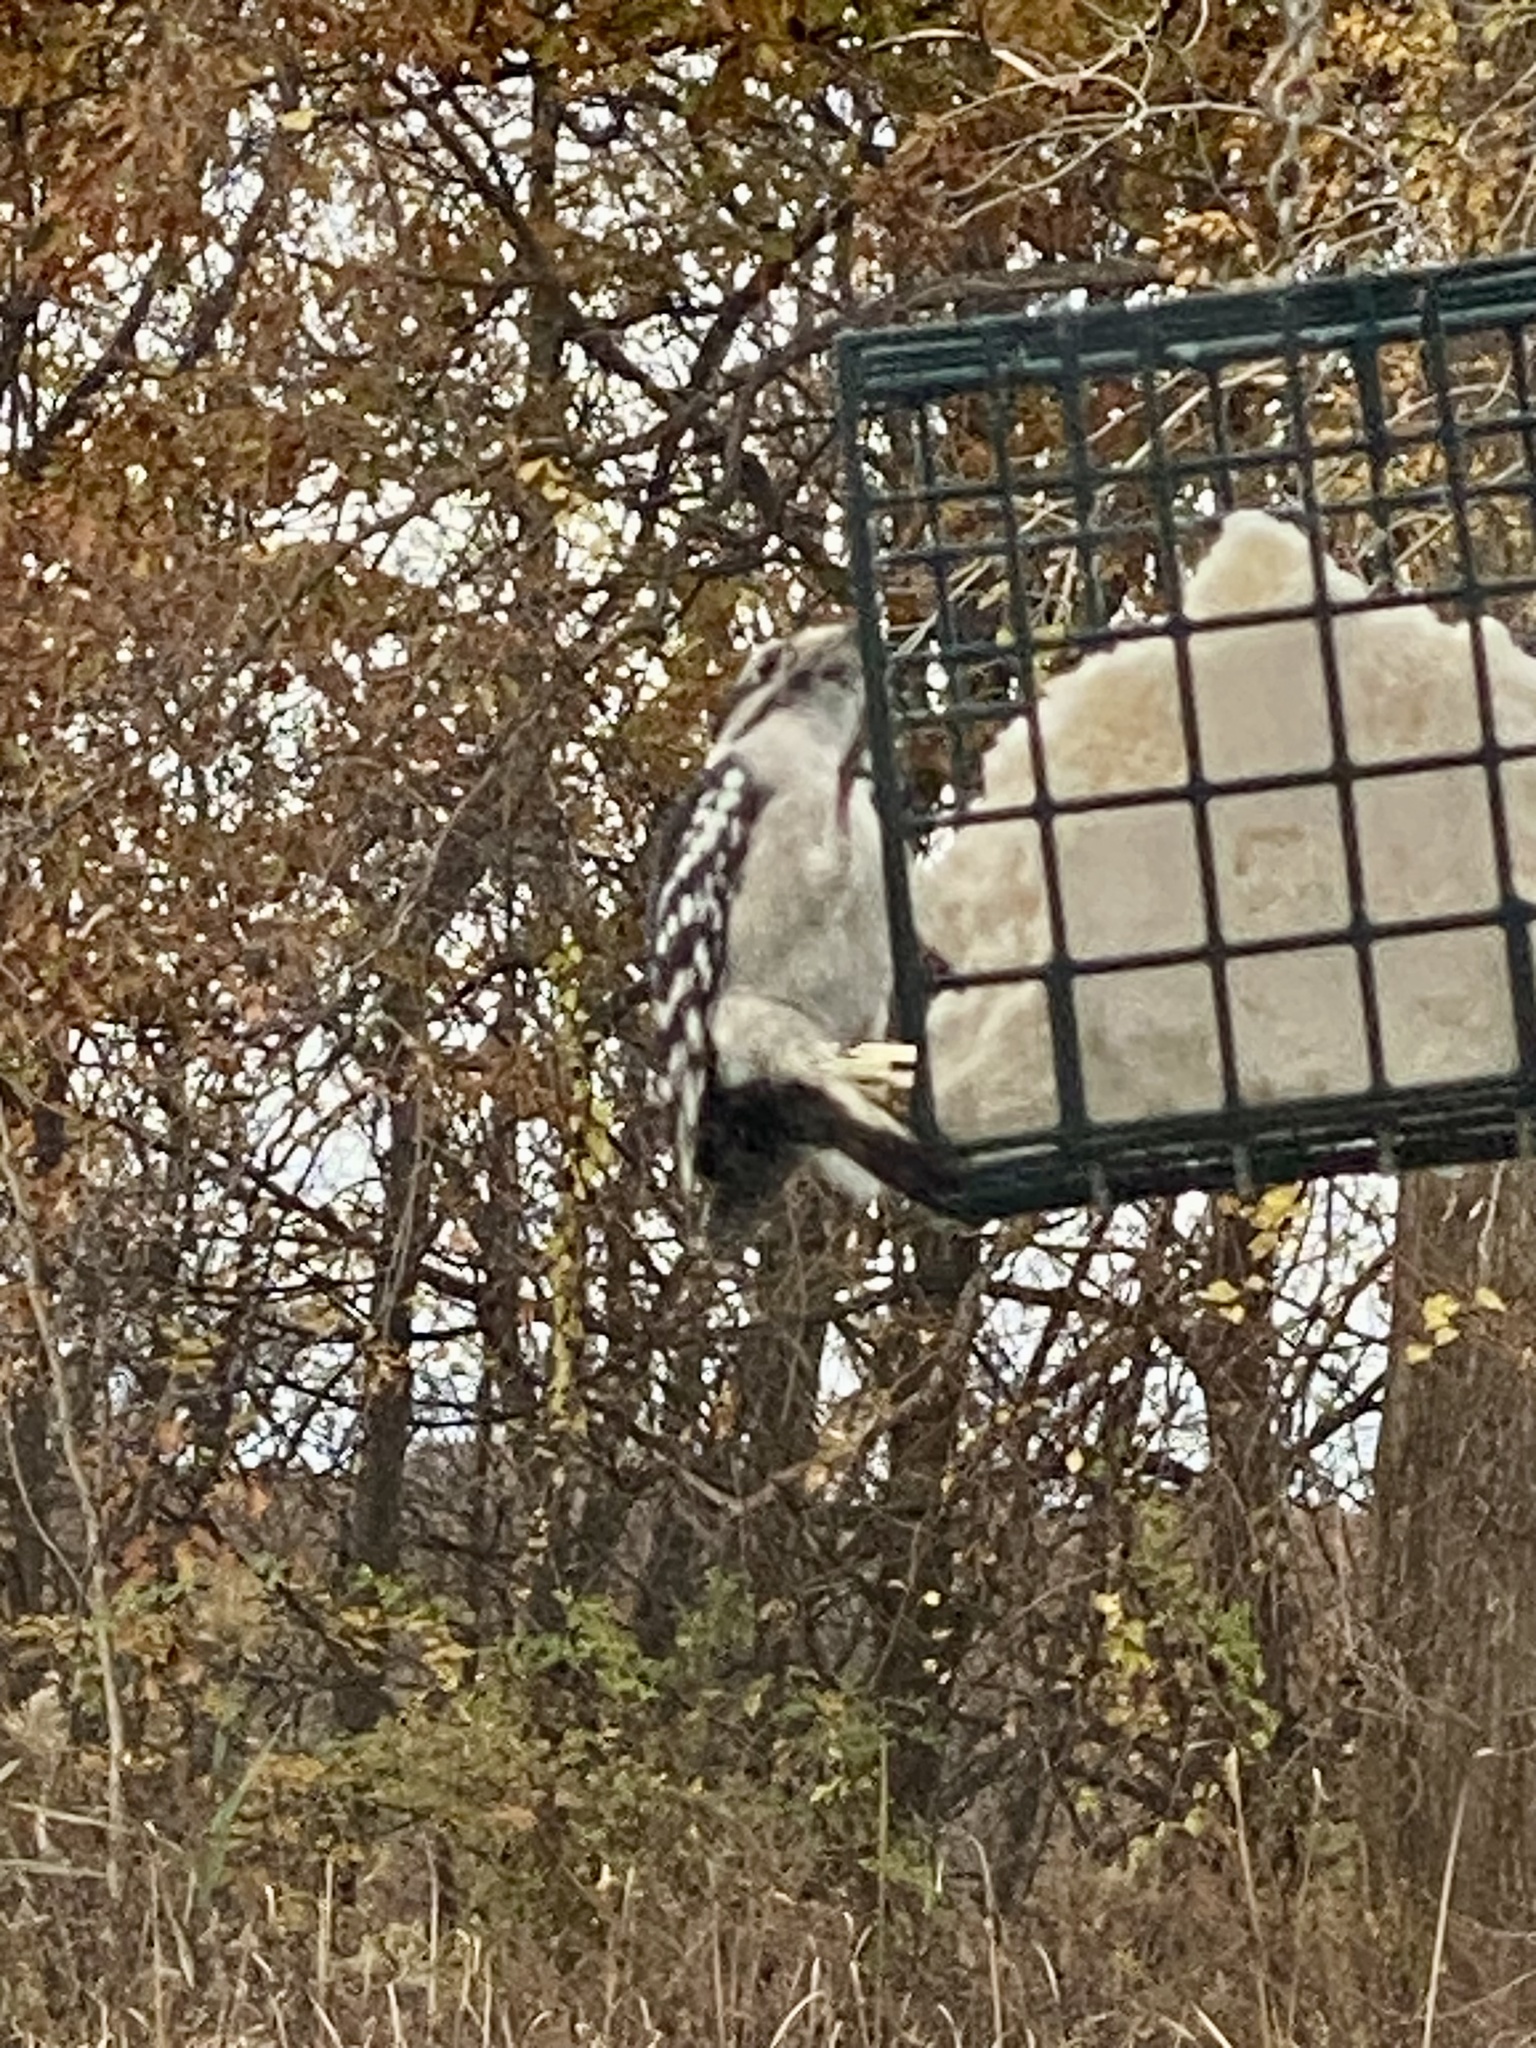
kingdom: Animalia
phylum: Chordata
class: Aves
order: Piciformes
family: Picidae
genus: Dryobates
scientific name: Dryobates pubescens
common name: Downy woodpecker
